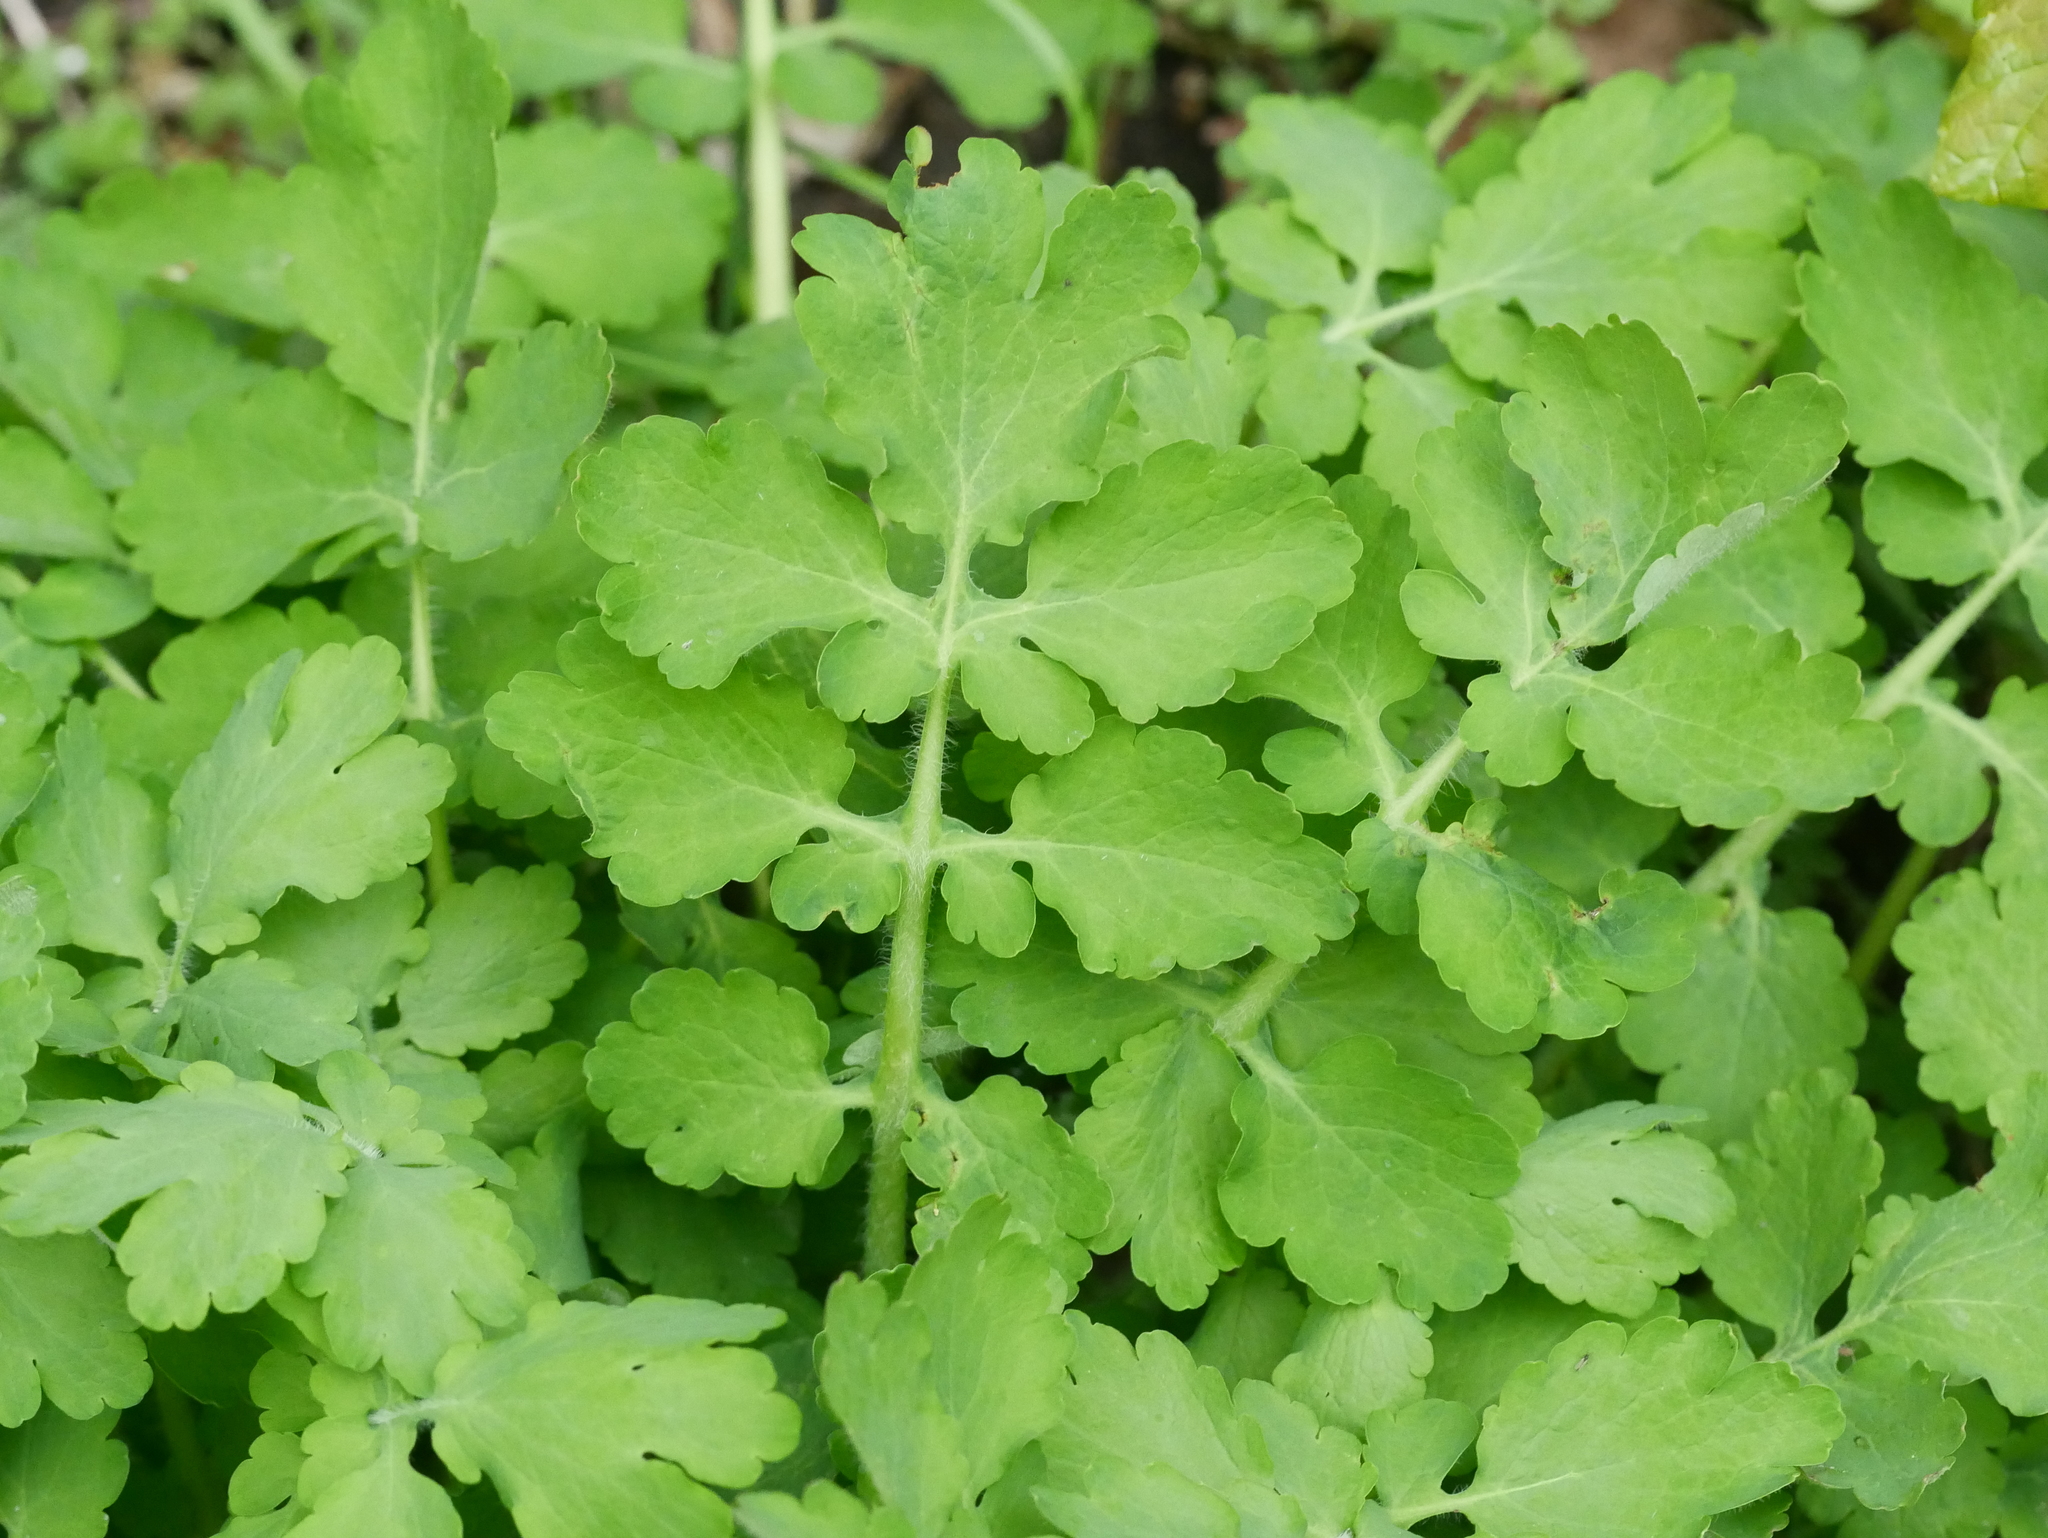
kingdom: Plantae
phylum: Tracheophyta
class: Magnoliopsida
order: Ranunculales
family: Papaveraceae
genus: Chelidonium
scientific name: Chelidonium majus
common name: Greater celandine
